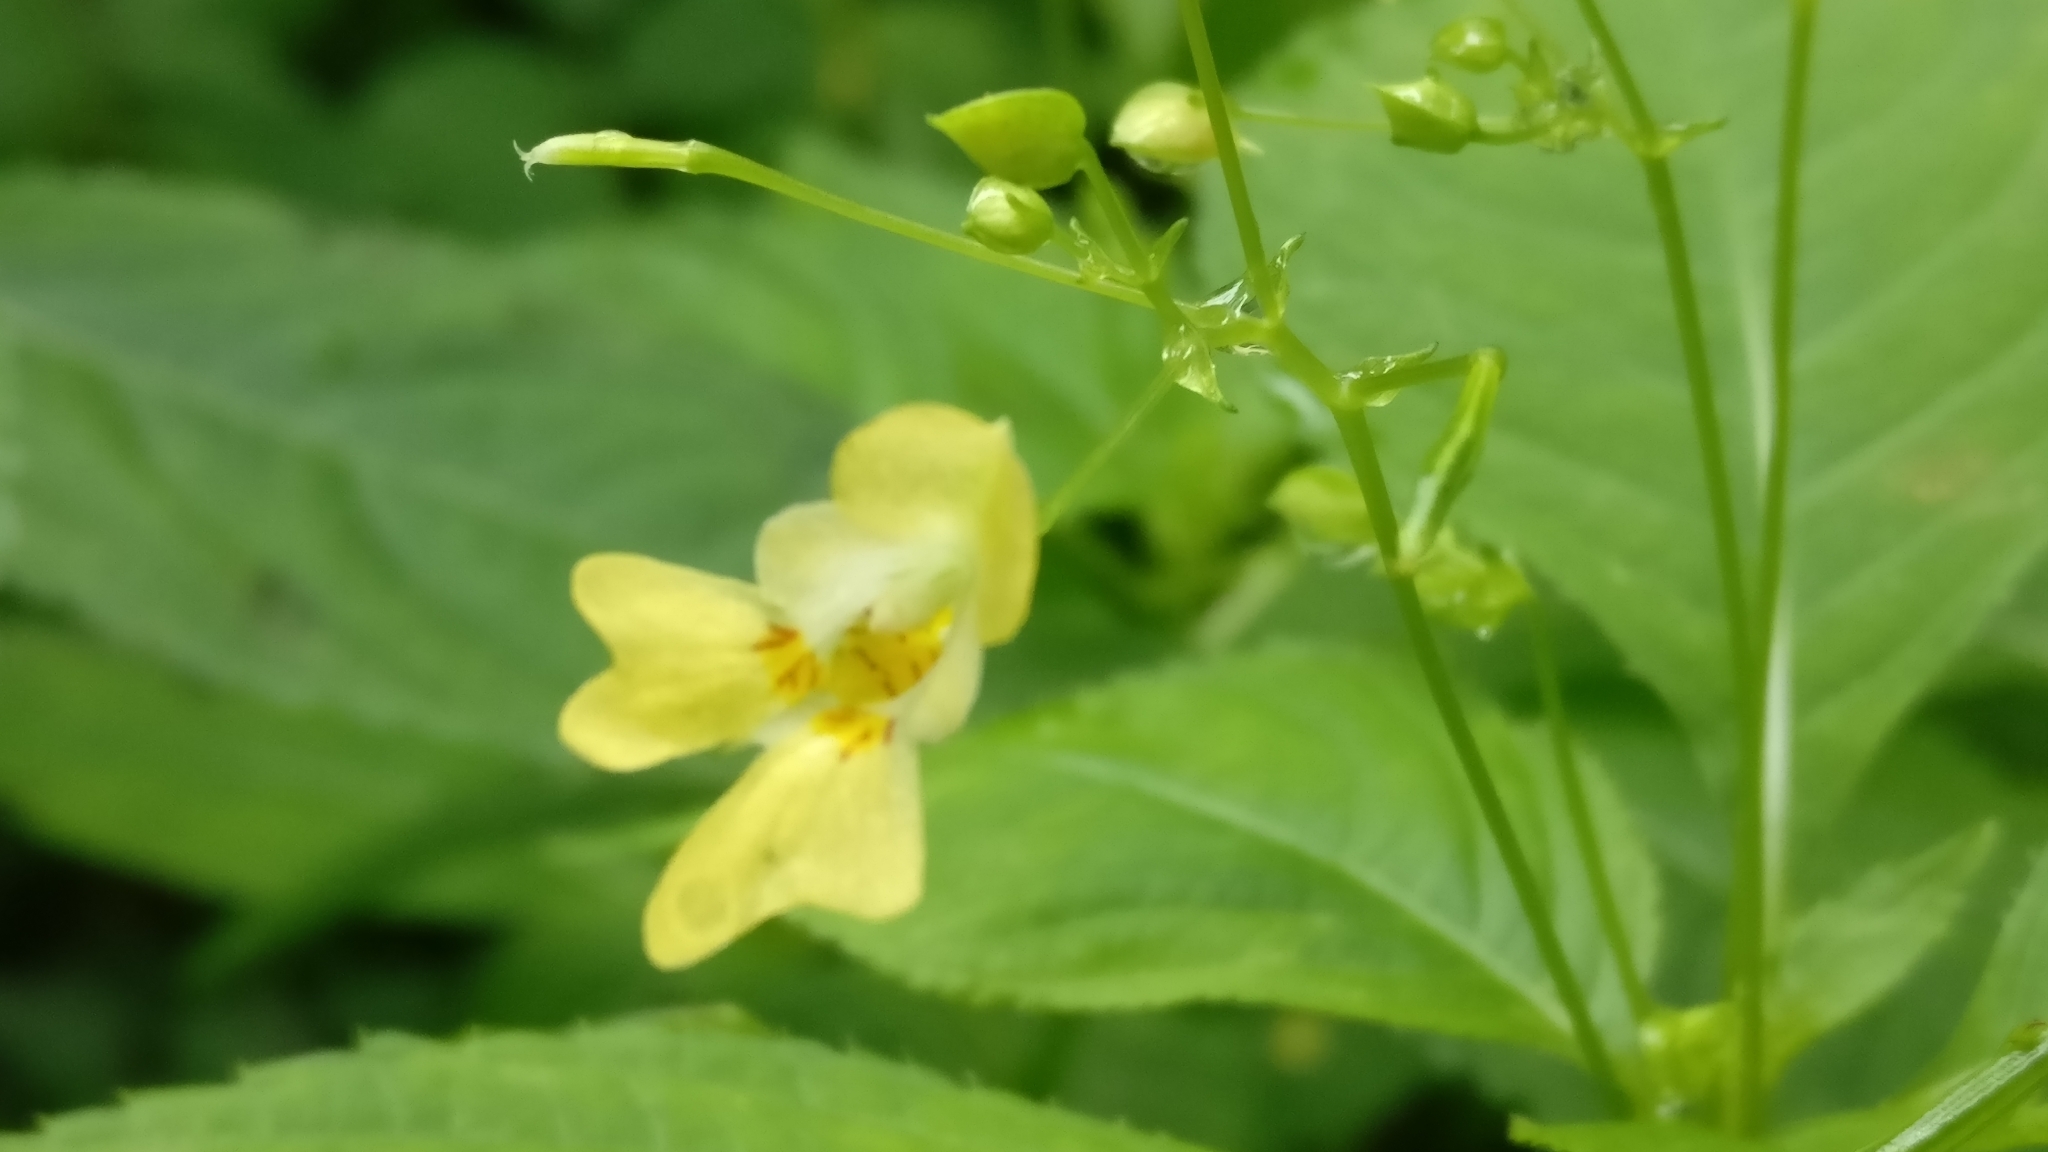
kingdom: Plantae
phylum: Tracheophyta
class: Magnoliopsida
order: Ericales
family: Balsaminaceae
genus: Impatiens
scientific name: Impatiens parviflora
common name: Small balsam
